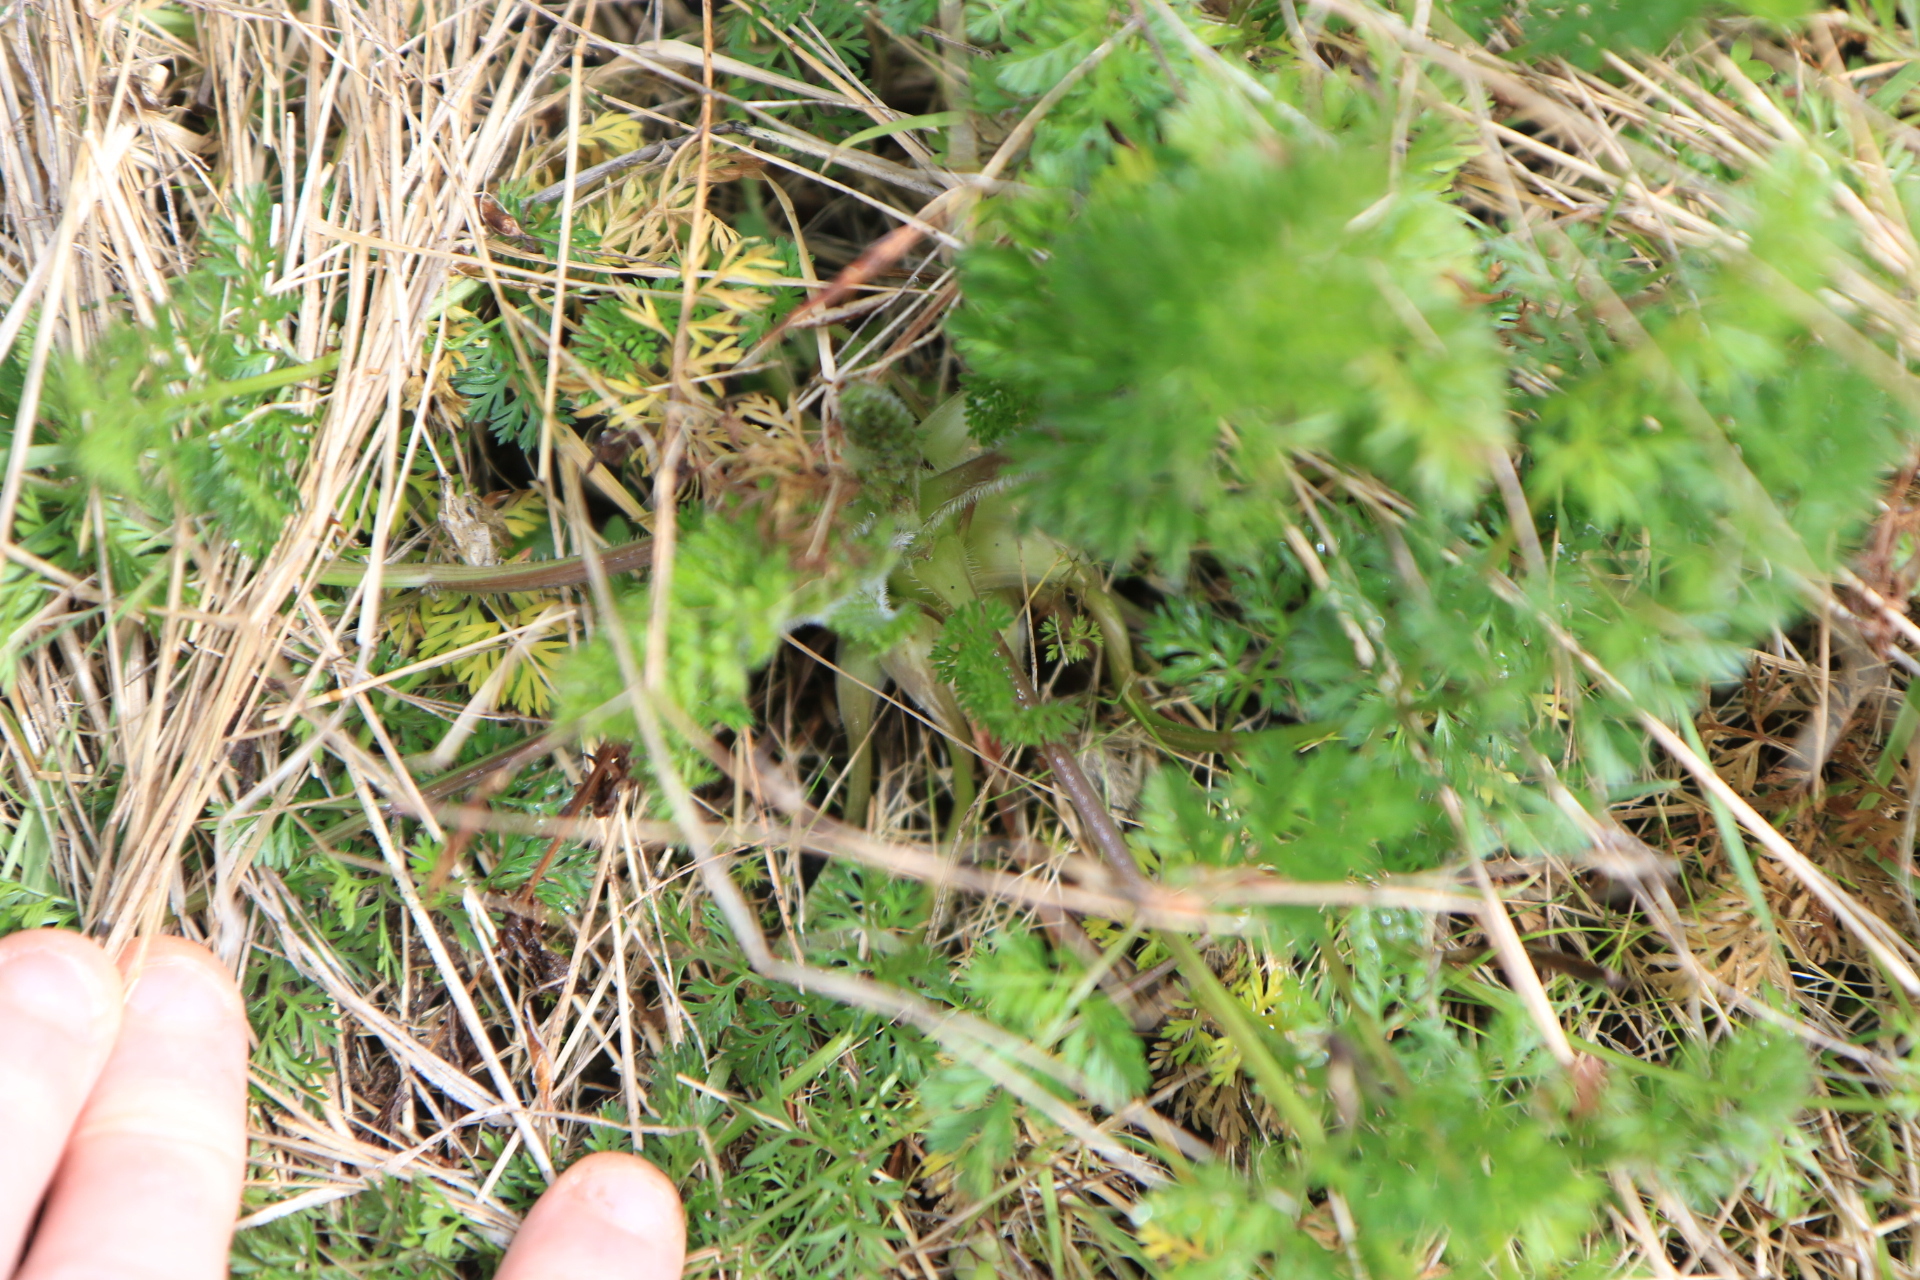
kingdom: Plantae
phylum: Tracheophyta
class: Magnoliopsida
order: Apiales
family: Apiaceae
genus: Daucus
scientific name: Daucus carota
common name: Wild carrot
